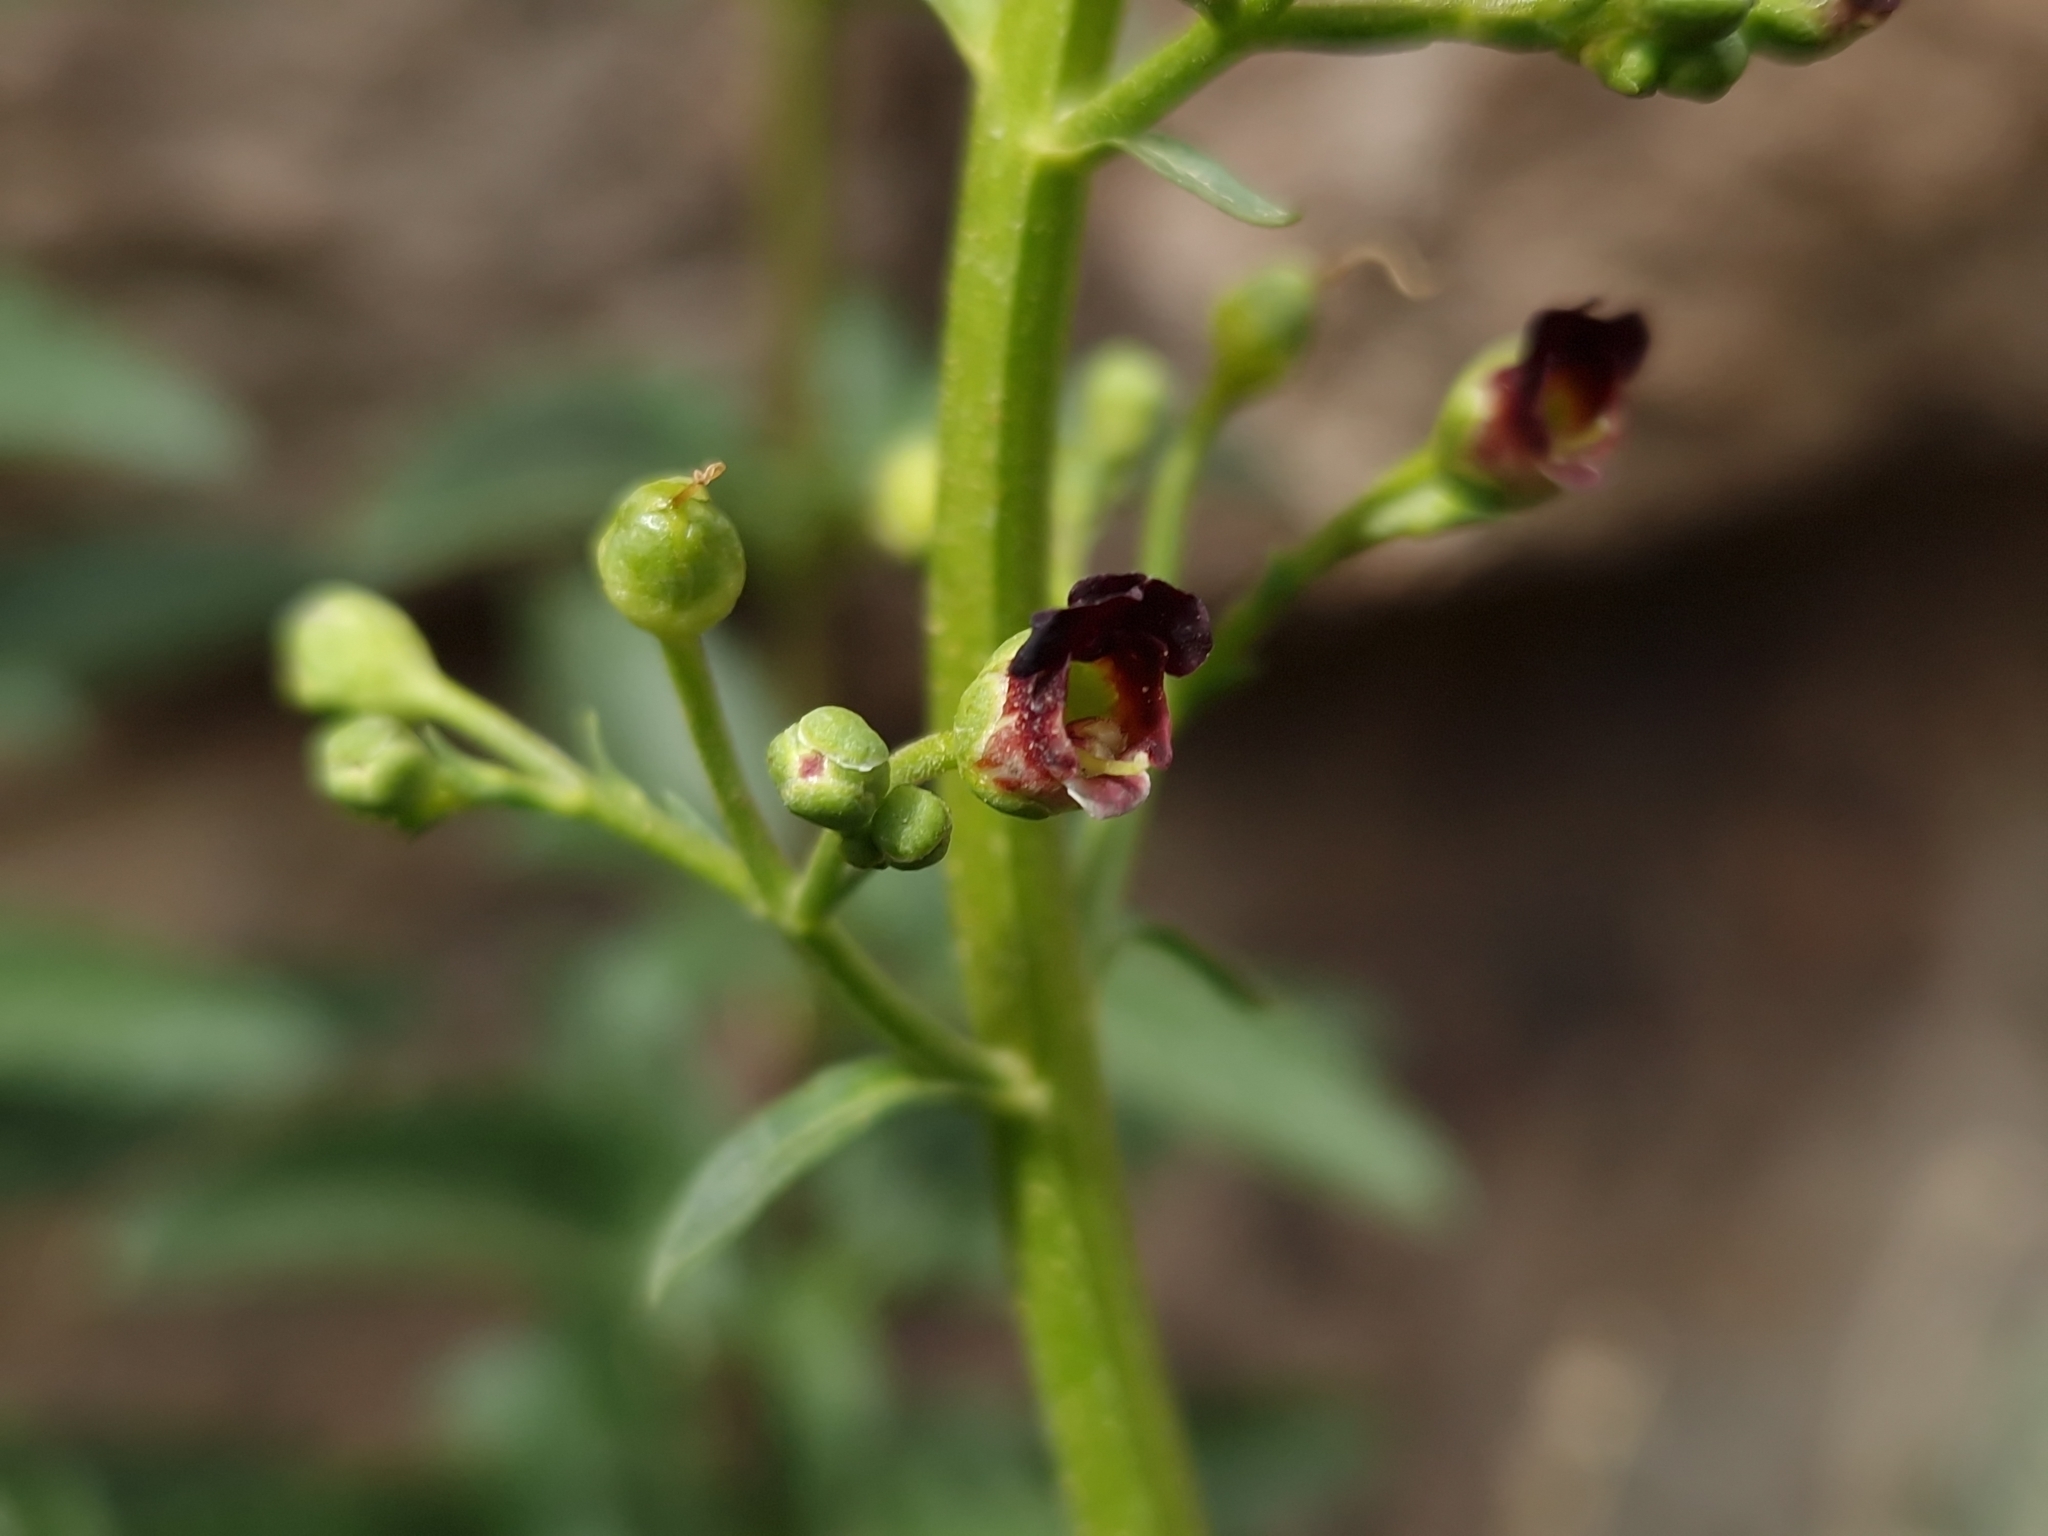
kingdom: Plantae
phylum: Tracheophyta
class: Magnoliopsida
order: Lamiales
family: Scrophulariaceae
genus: Scrophularia
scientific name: Scrophularia glabrata
